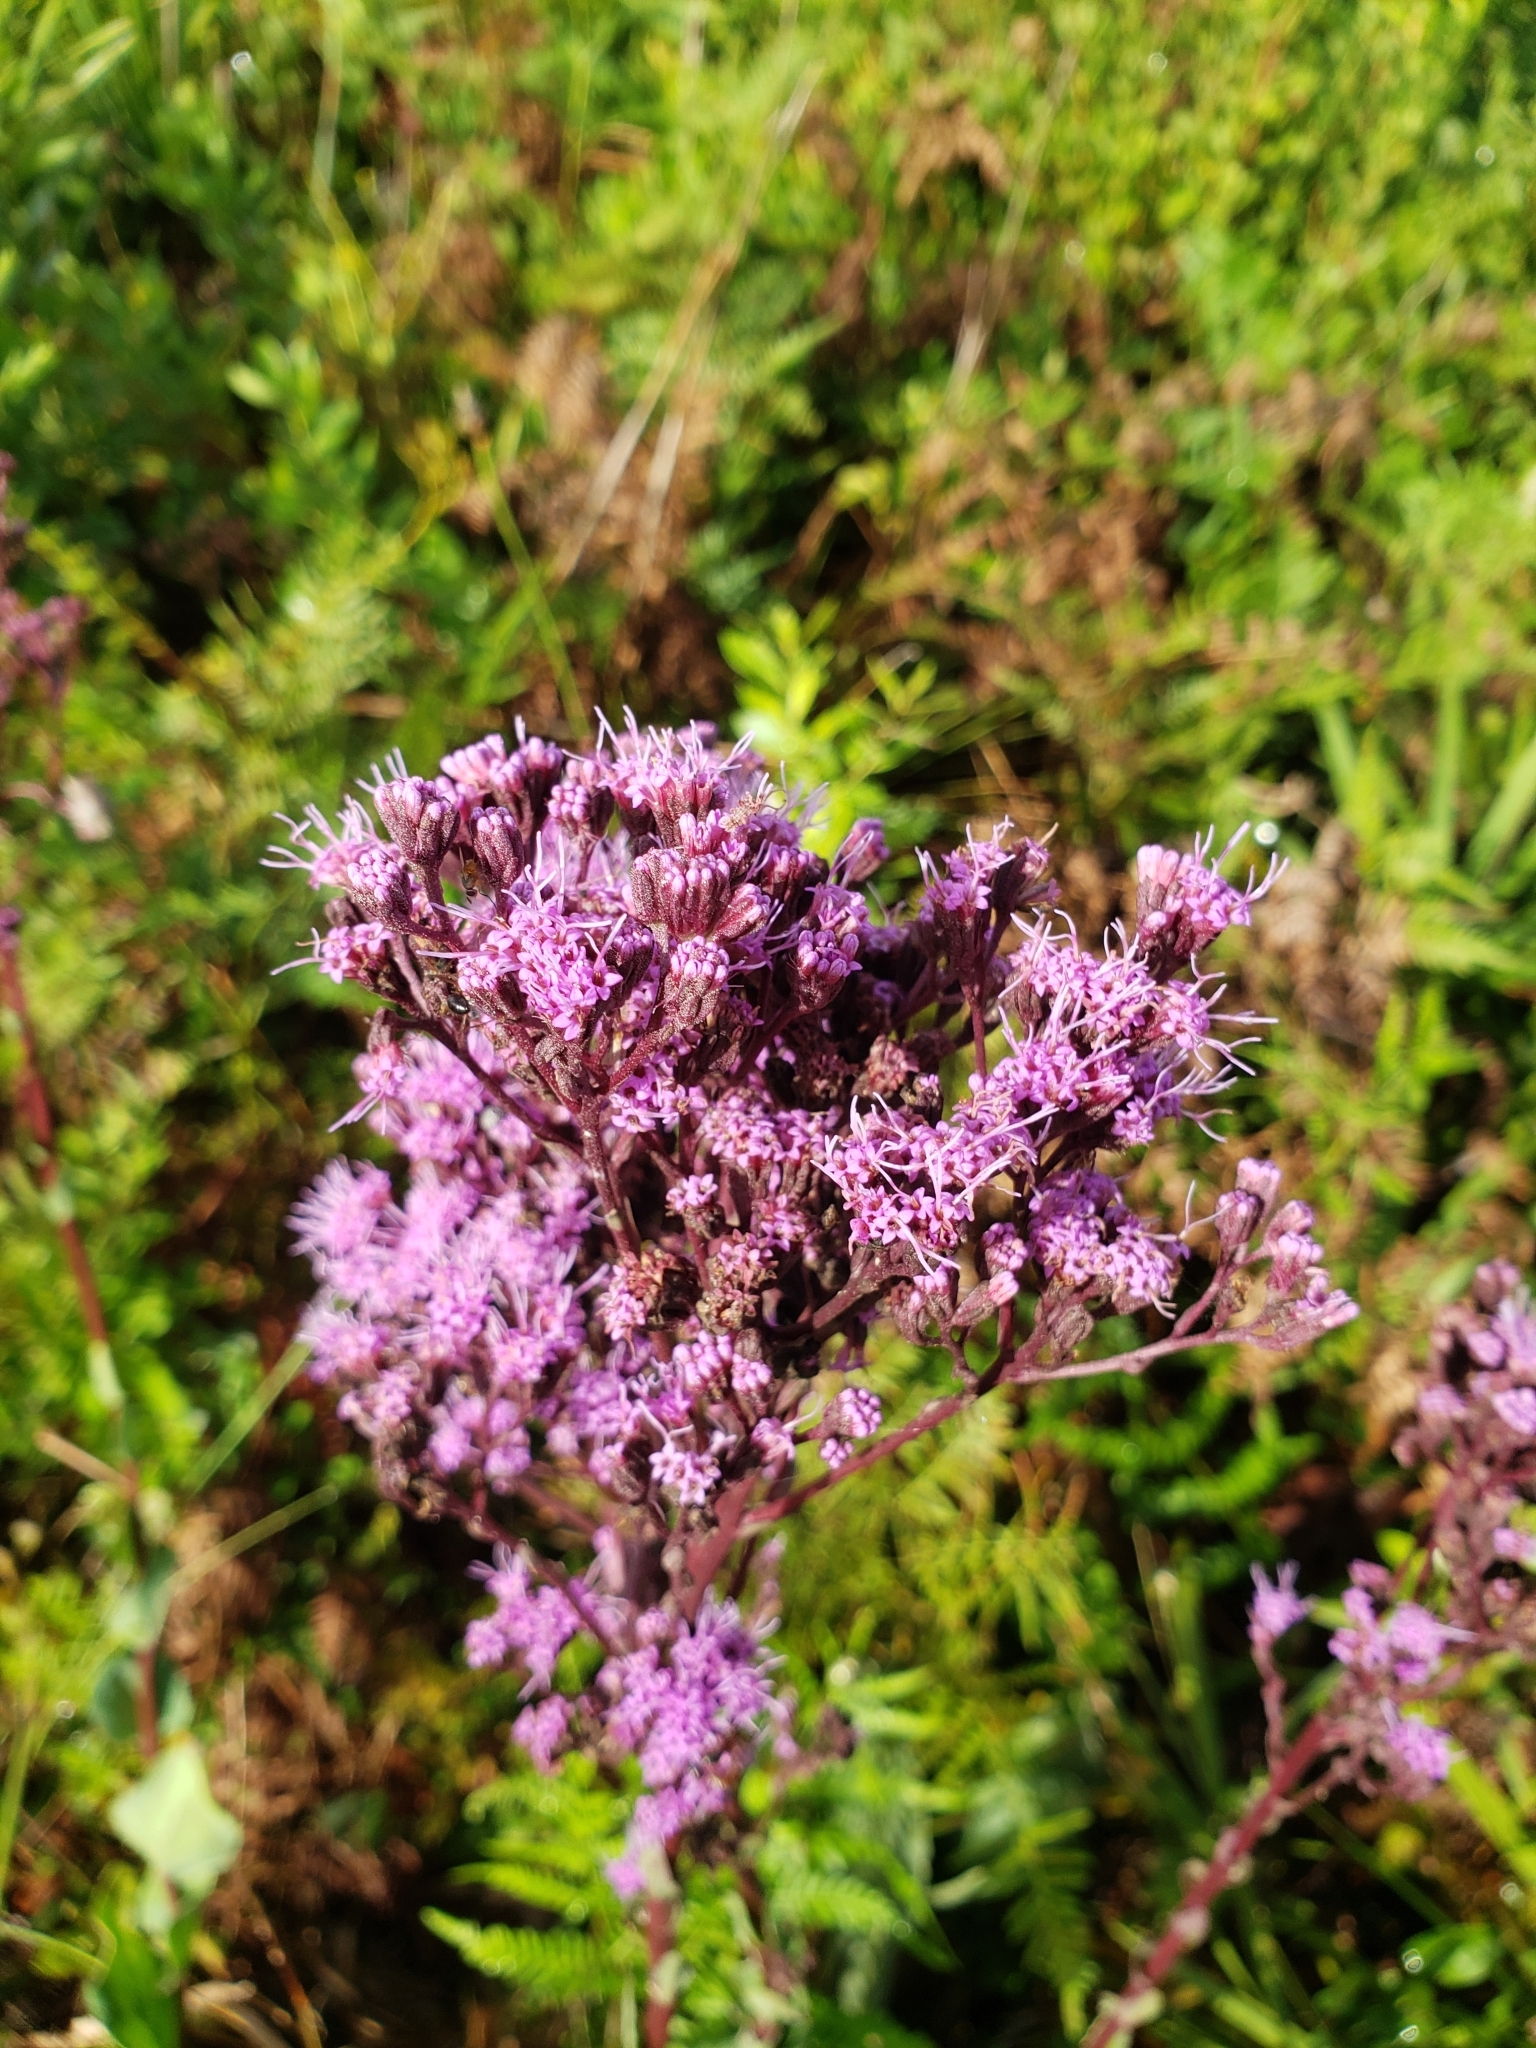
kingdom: Plantae
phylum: Tracheophyta
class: Magnoliopsida
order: Asterales
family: Asteraceae
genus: Carphephorus
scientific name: Carphephorus odoratissimus
